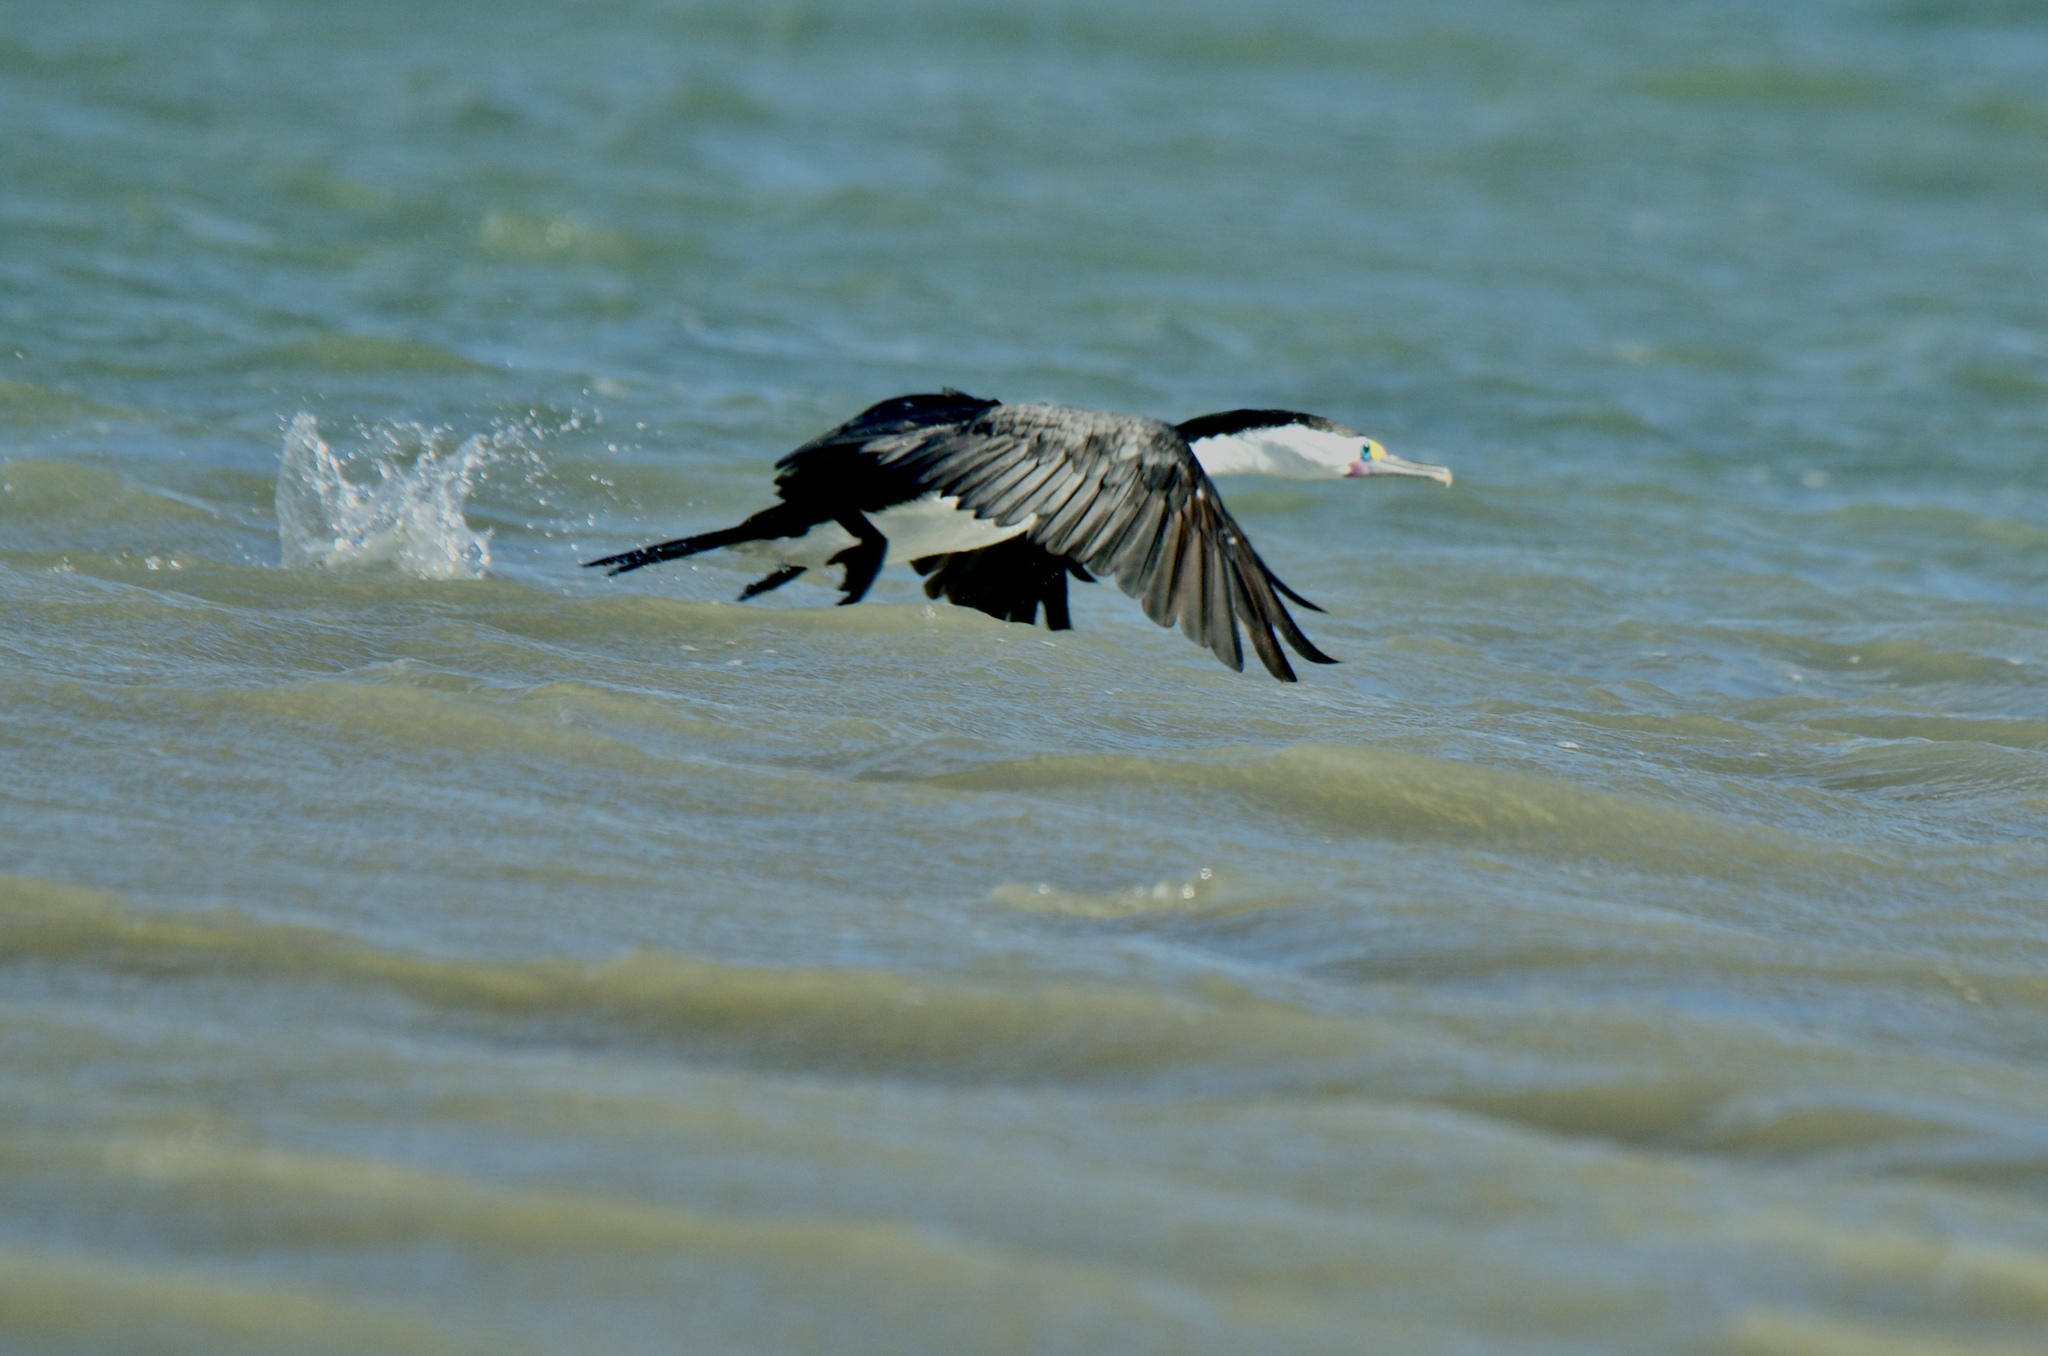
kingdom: Animalia
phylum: Chordata
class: Aves
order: Suliformes
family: Phalacrocoracidae
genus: Phalacrocorax
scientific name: Phalacrocorax varius
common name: Pied cormorant
